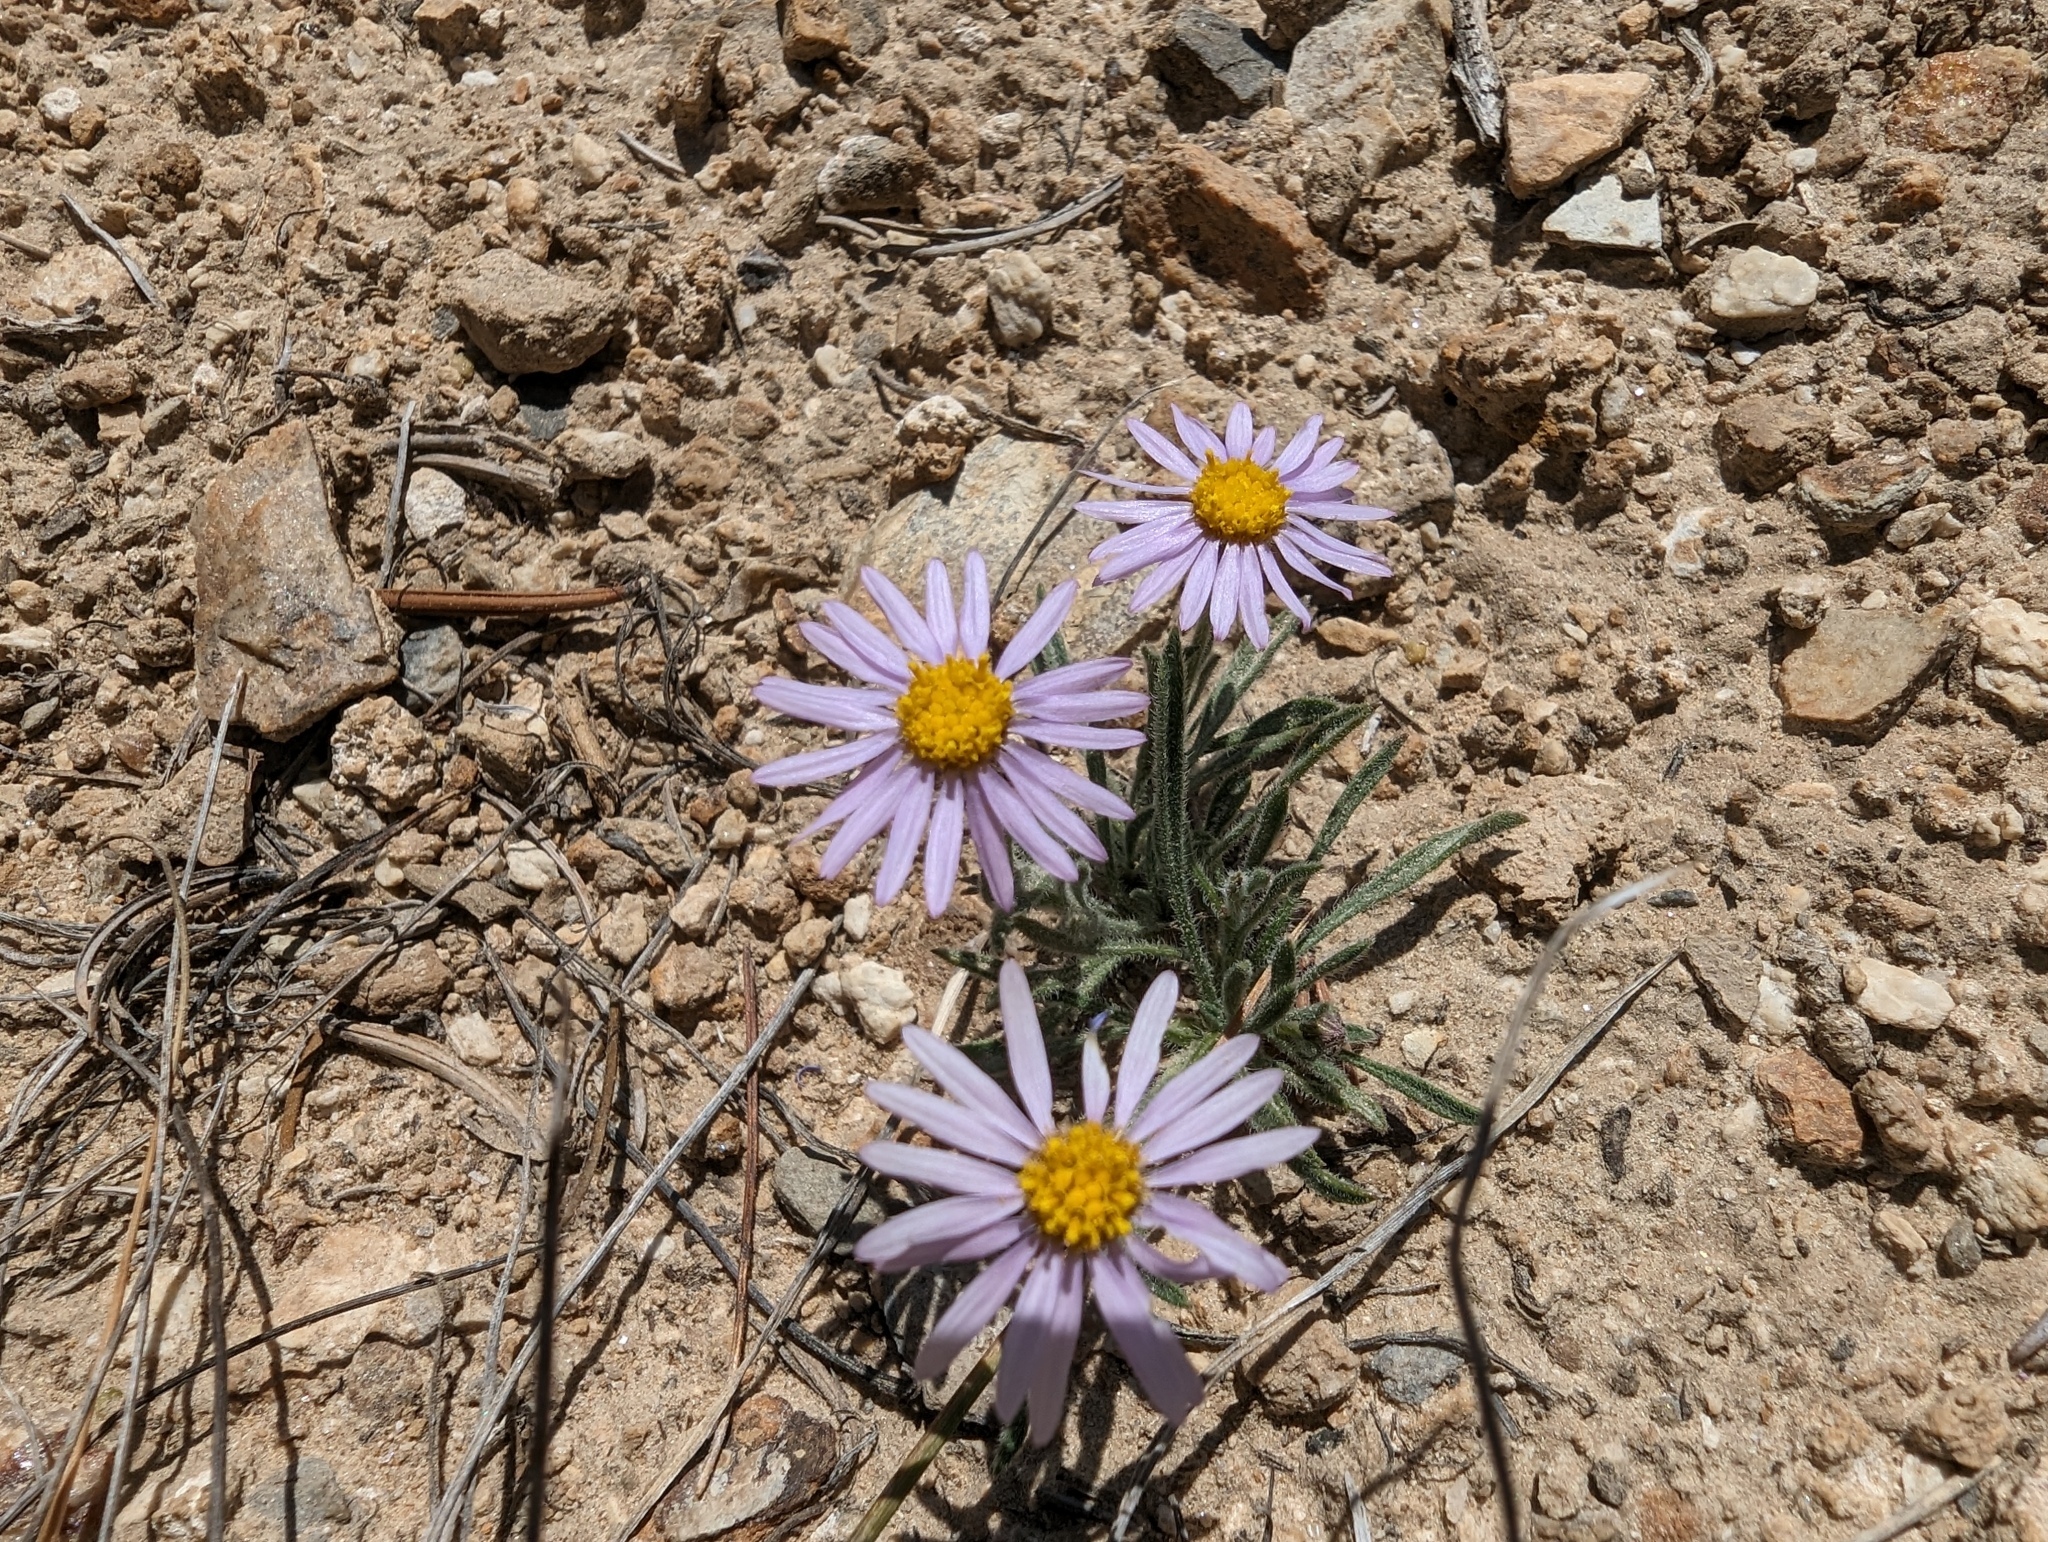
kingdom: Plantae
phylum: Tracheophyta
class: Magnoliopsida
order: Asterales
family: Asteraceae
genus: Erigeron
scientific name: Erigeron clokeyi
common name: Clokey's fleabane
